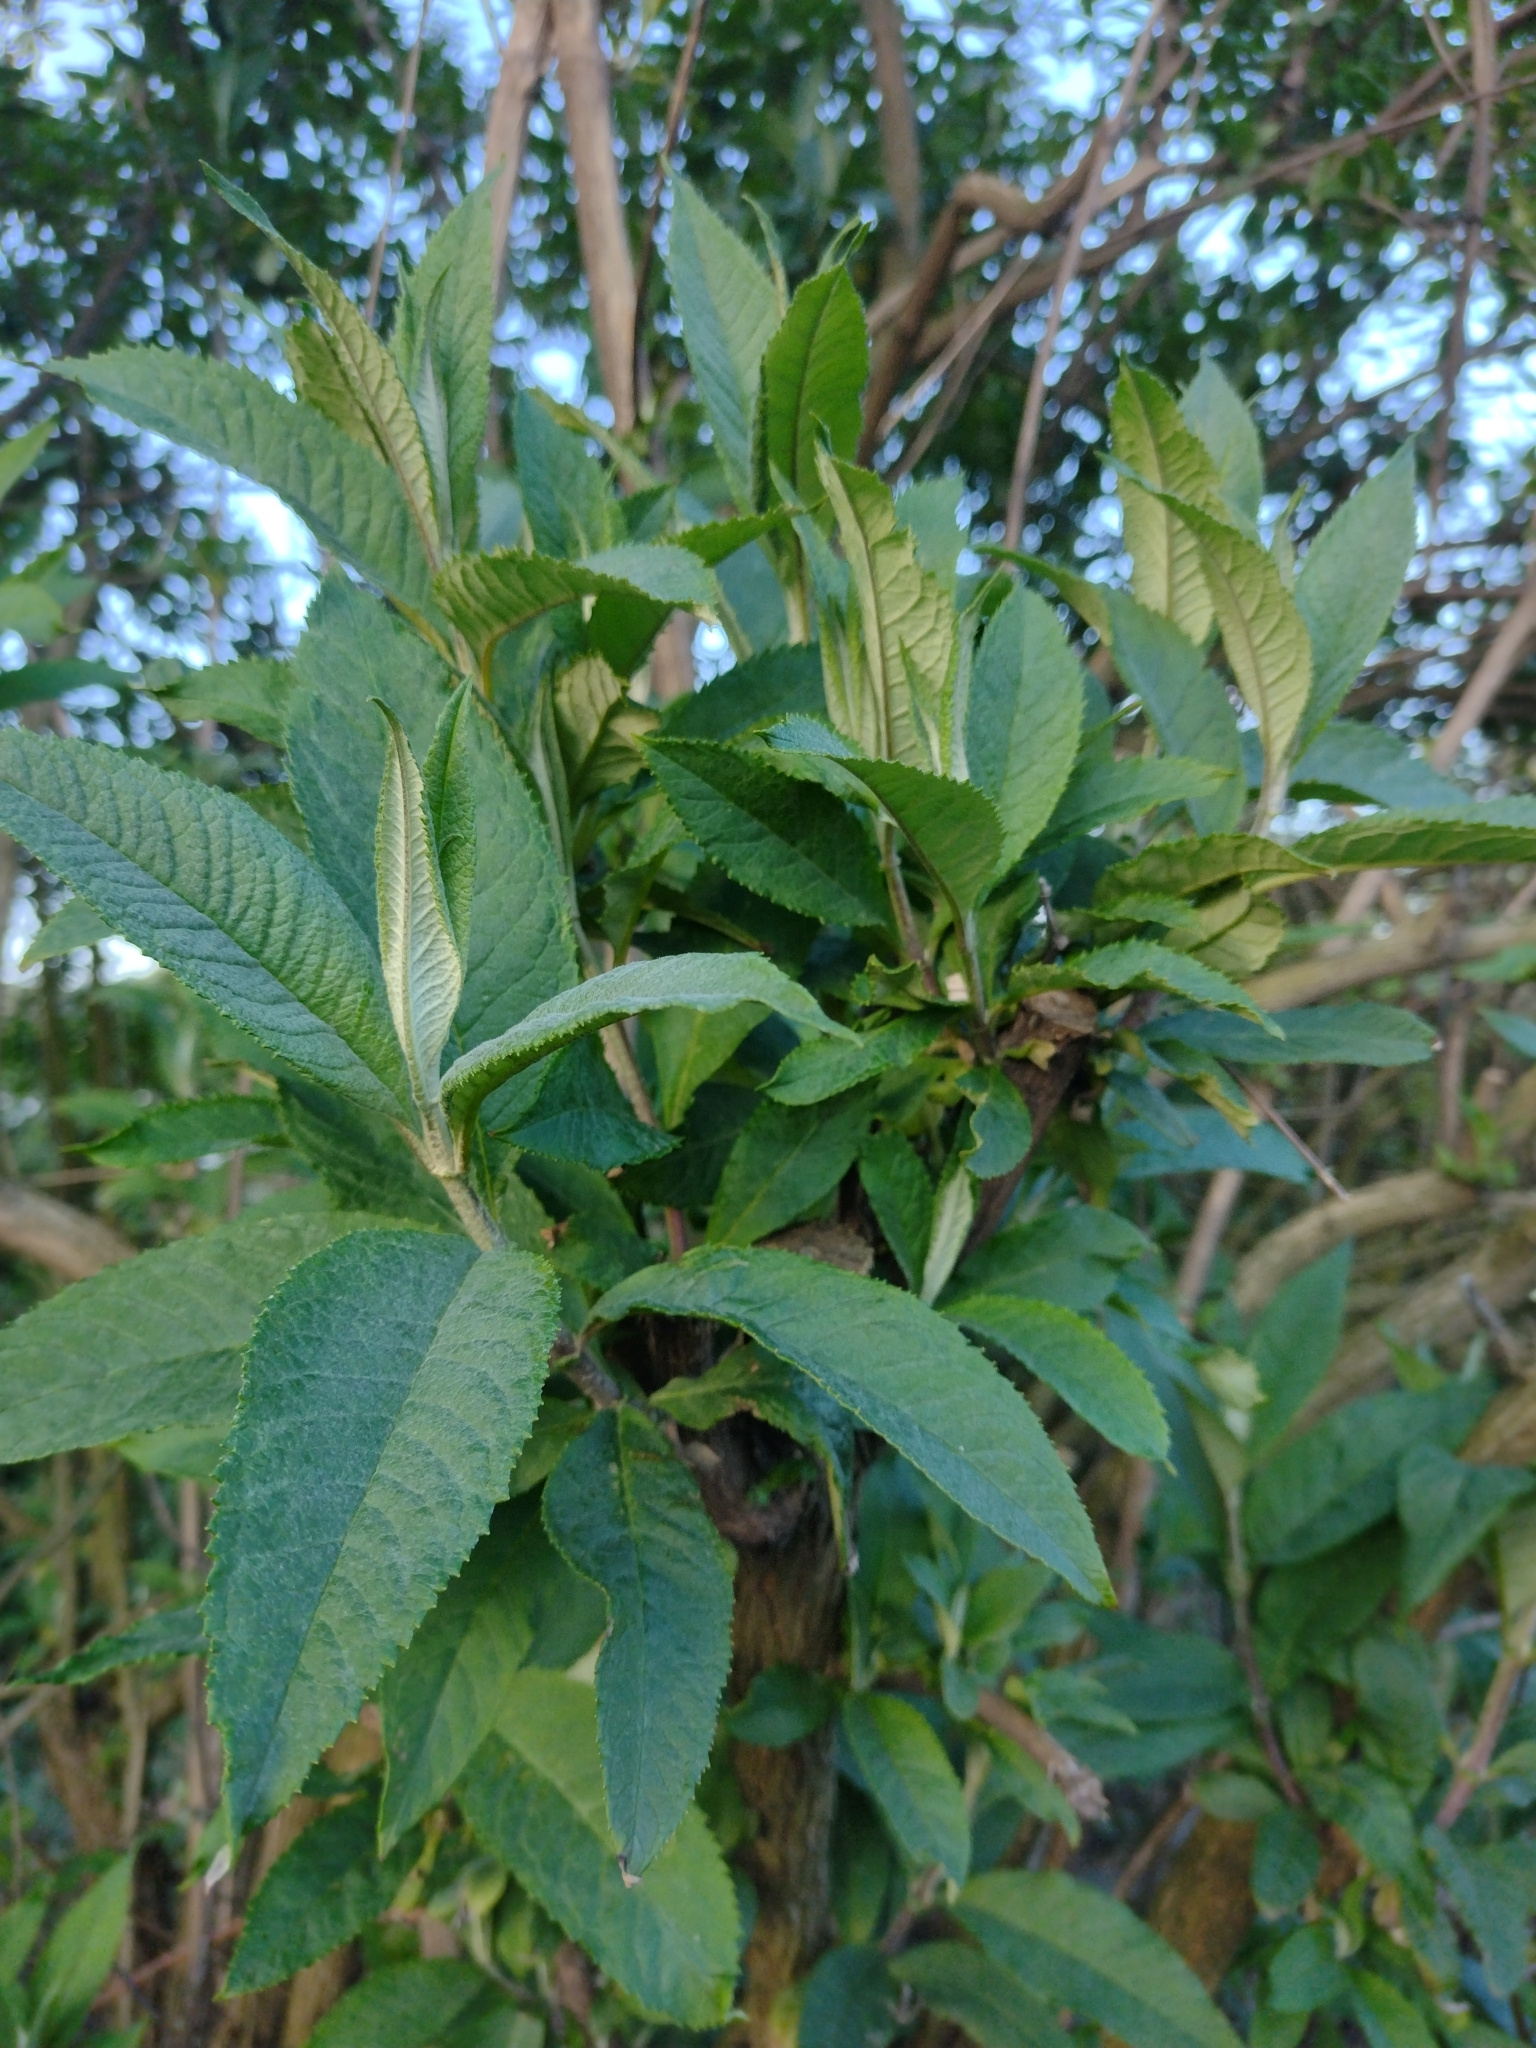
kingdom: Plantae
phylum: Tracheophyta
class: Magnoliopsida
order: Lamiales
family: Scrophulariaceae
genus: Buddleja
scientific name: Buddleja davidii
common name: Butterfly-bush
